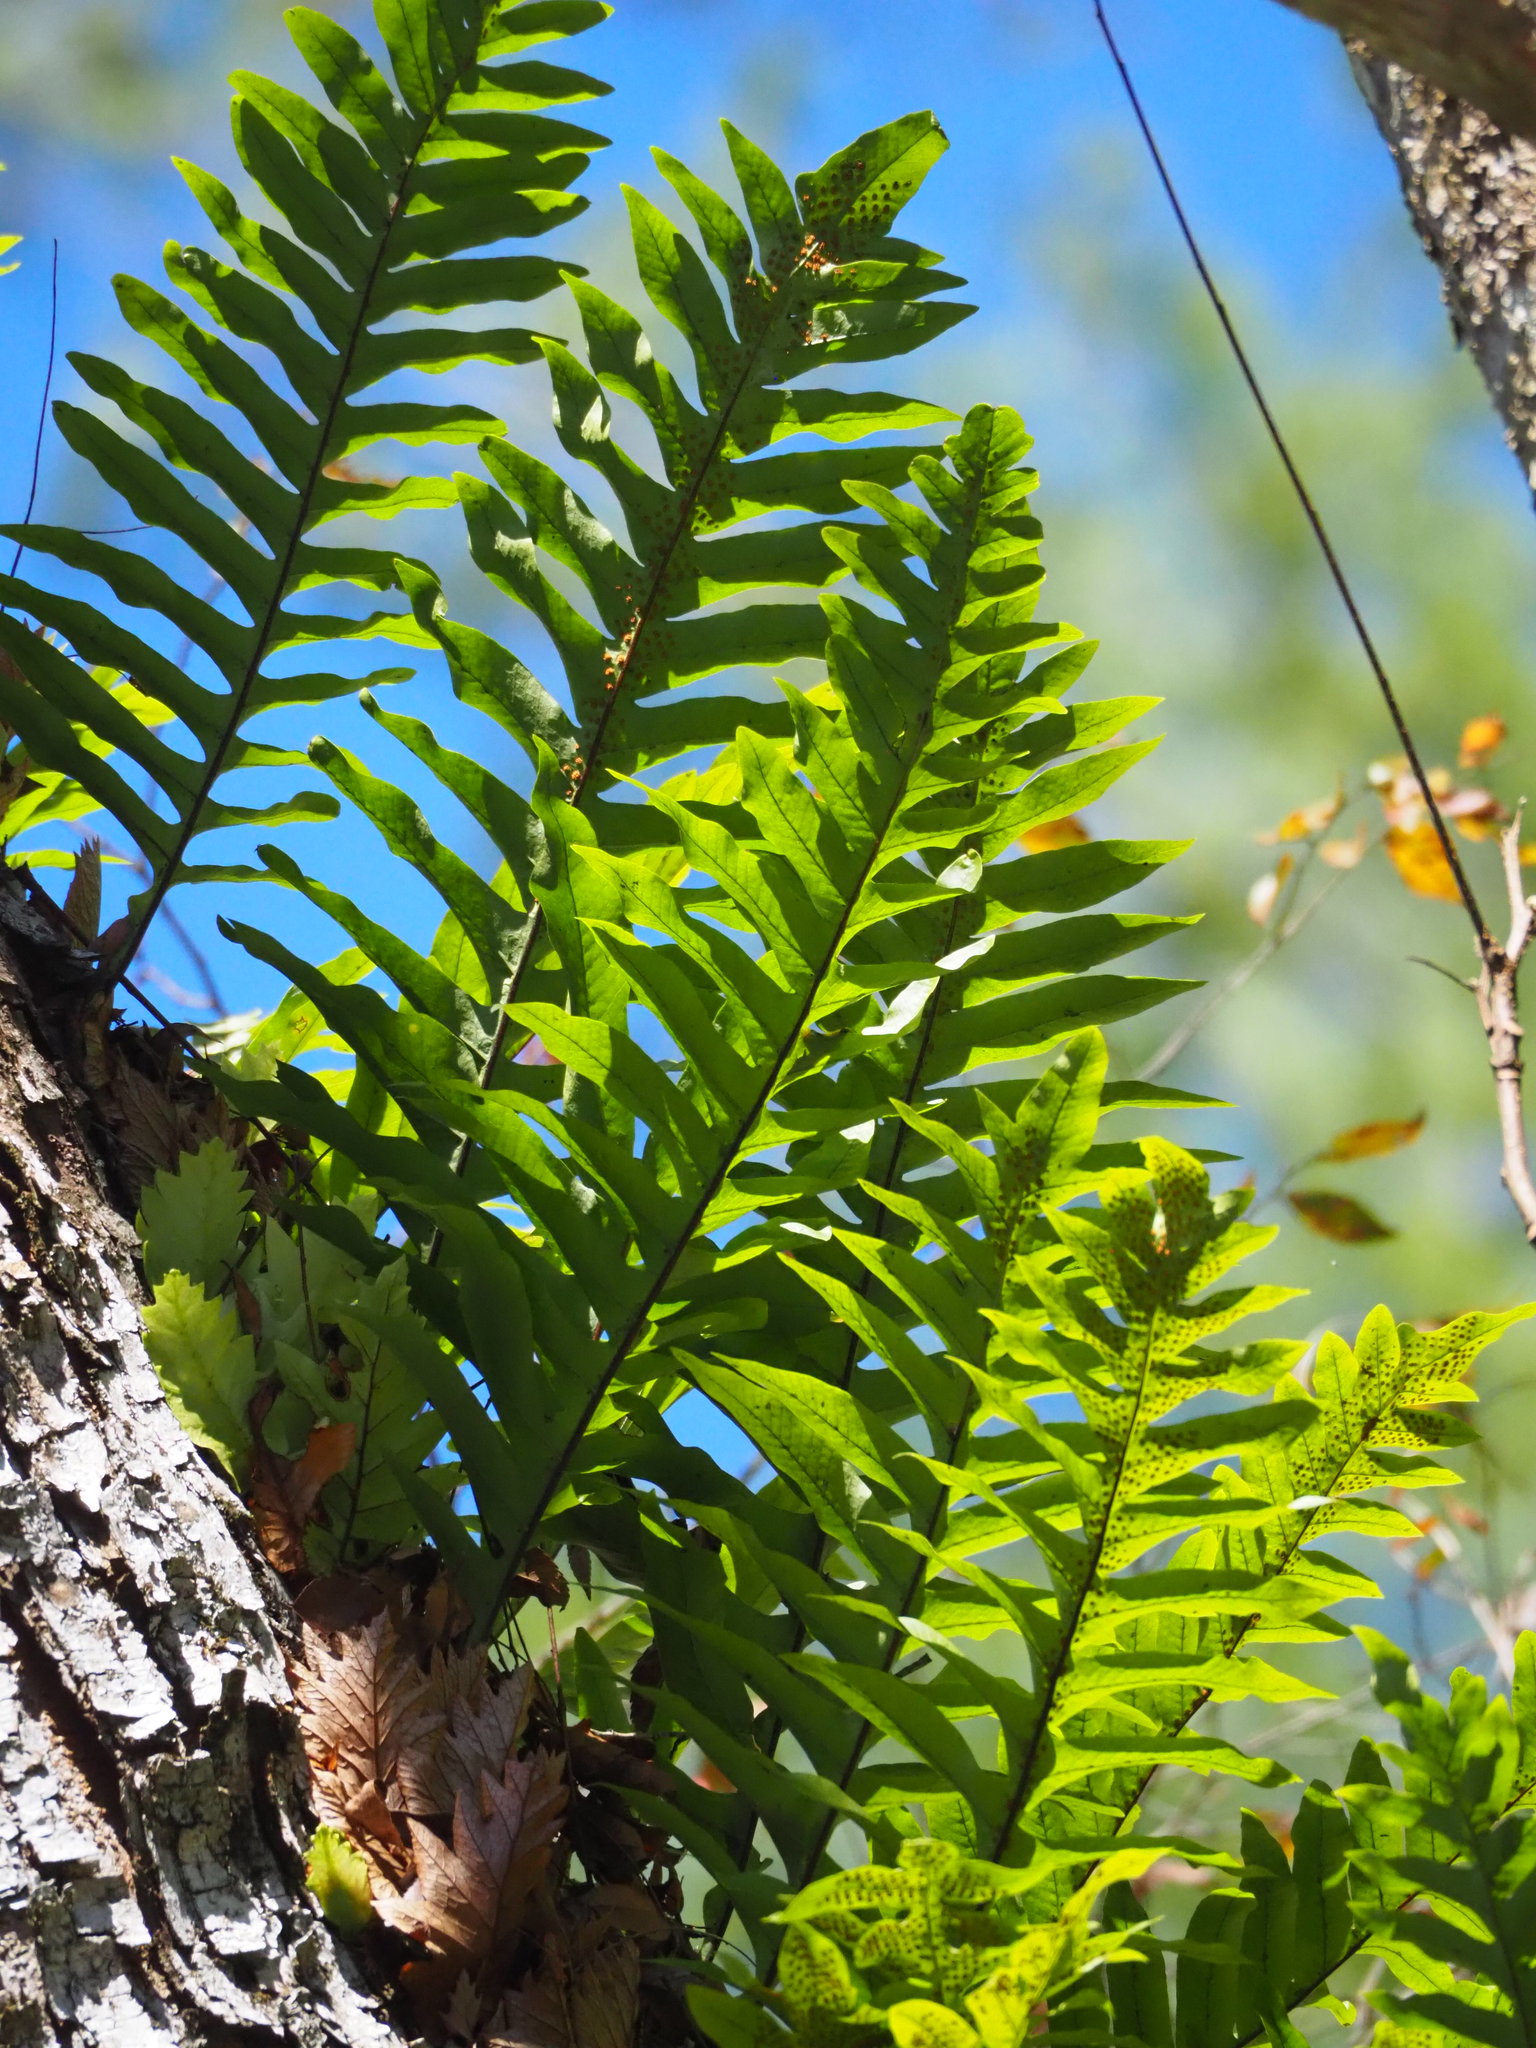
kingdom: Plantae
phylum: Tracheophyta
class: Polypodiopsida
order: Polypodiales
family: Polypodiaceae
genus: Drynaria
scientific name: Drynaria roosii
